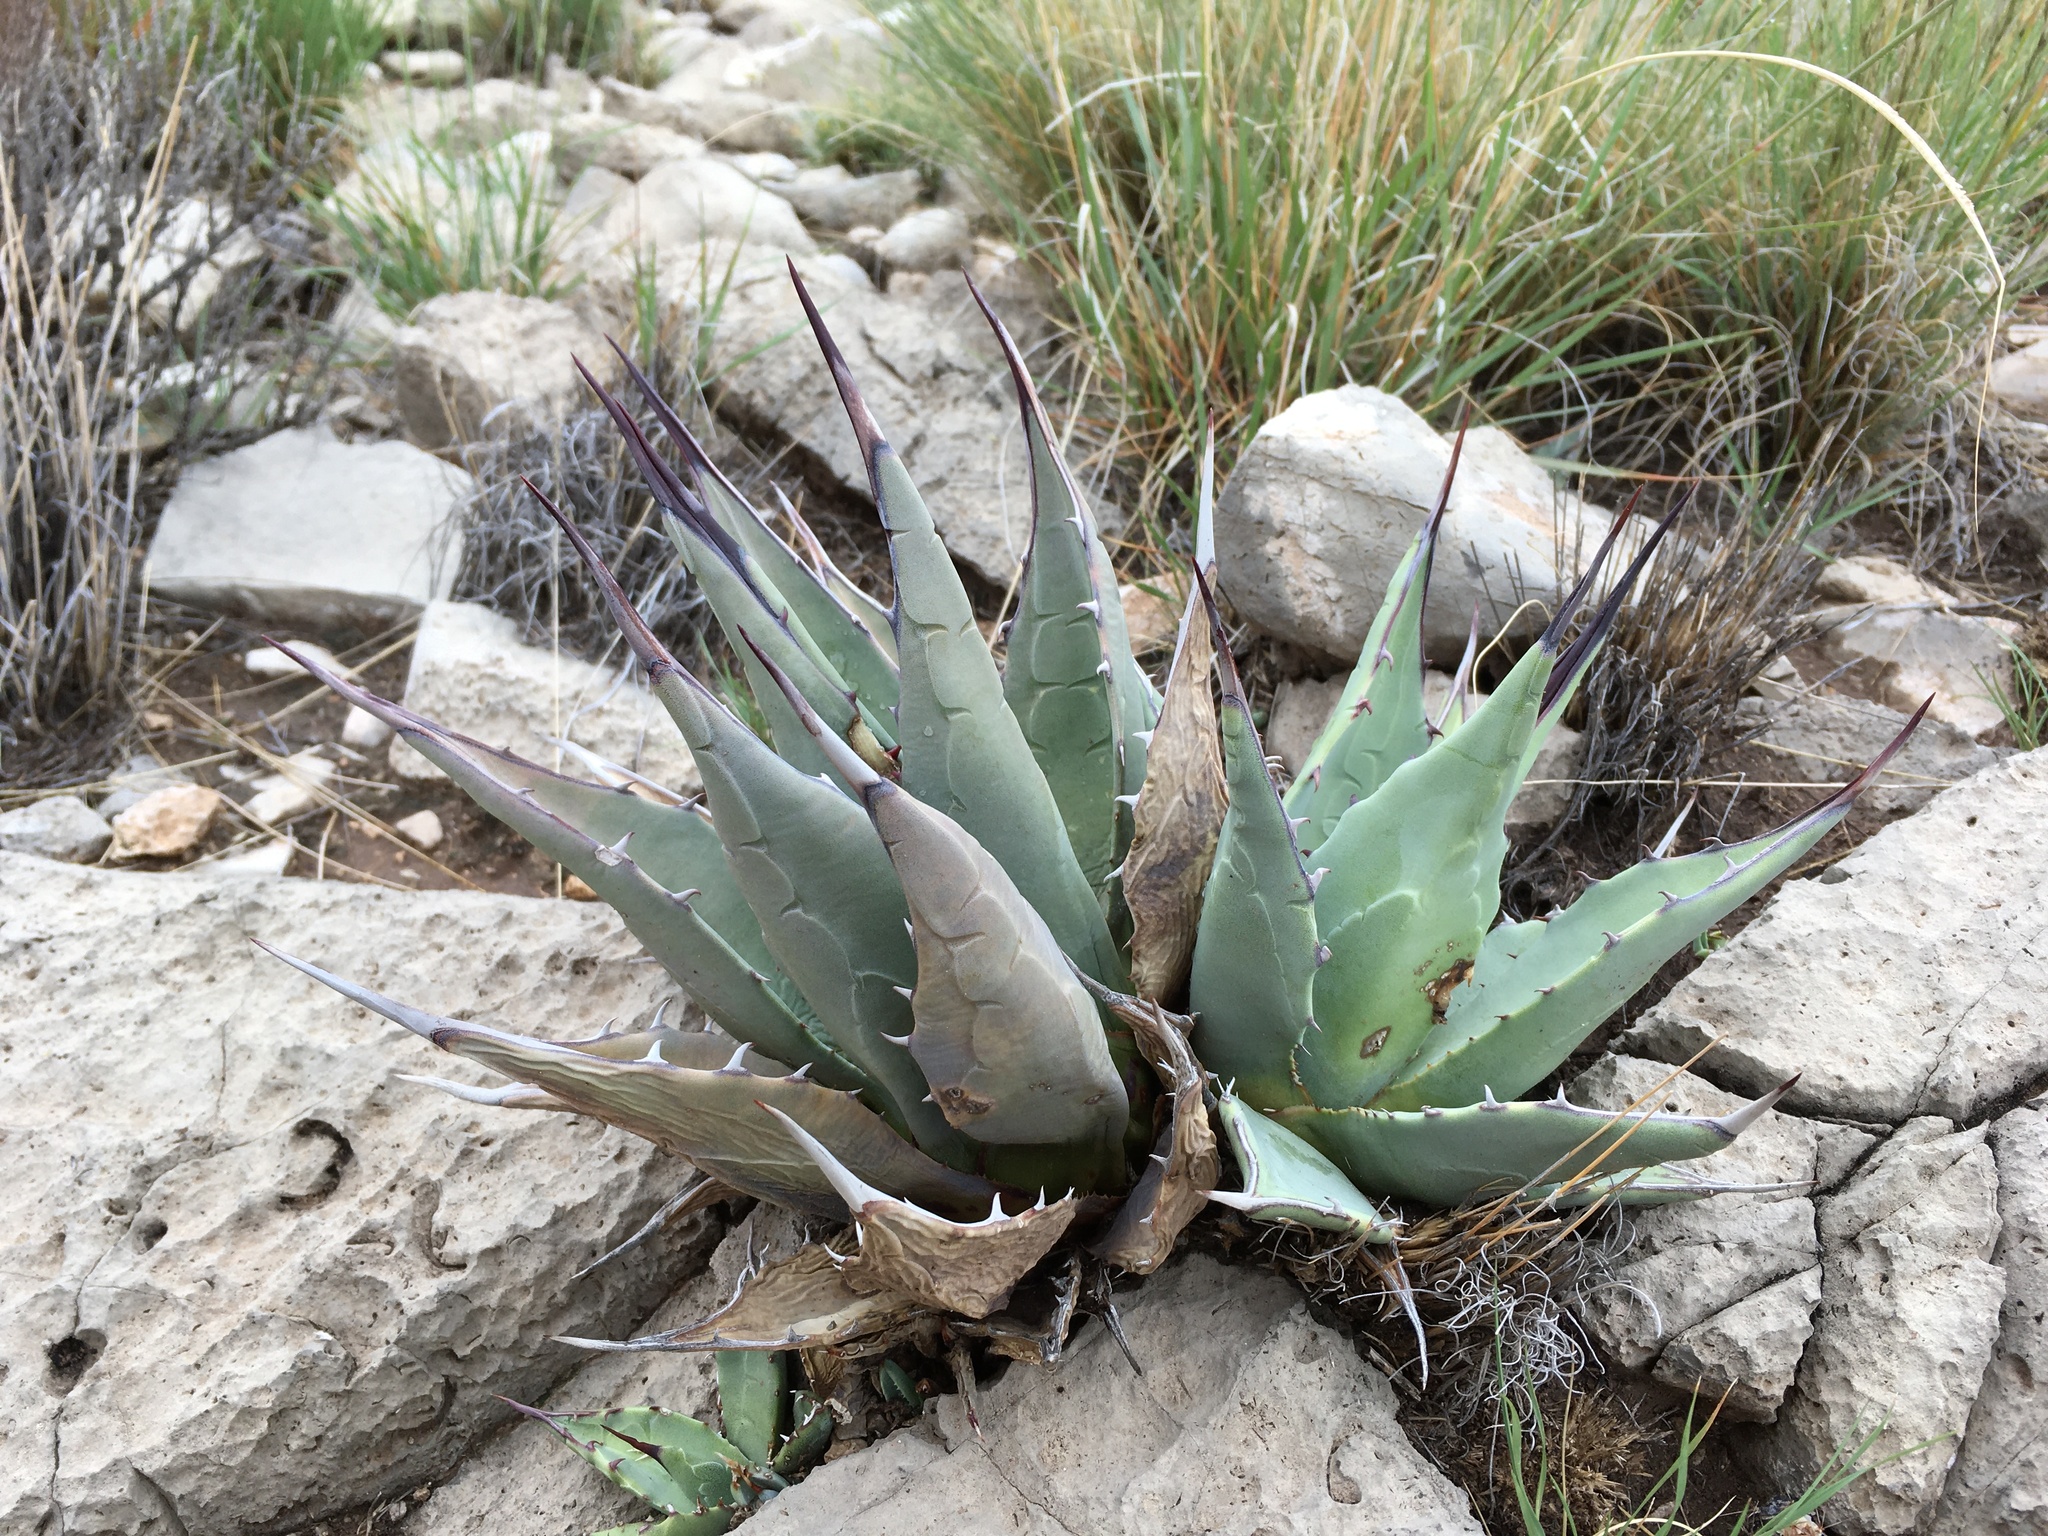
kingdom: Plantae
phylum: Tracheophyta
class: Liliopsida
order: Asparagales
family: Asparagaceae
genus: Agave
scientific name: Agave parryi
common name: Parry's agave
